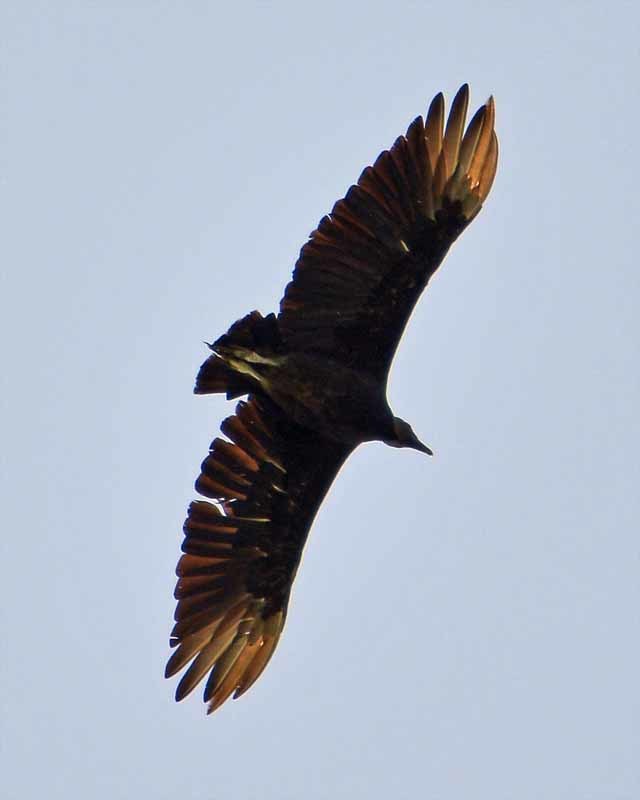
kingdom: Animalia
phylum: Chordata
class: Aves
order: Accipitriformes
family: Cathartidae
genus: Coragyps
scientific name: Coragyps atratus
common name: Black vulture
